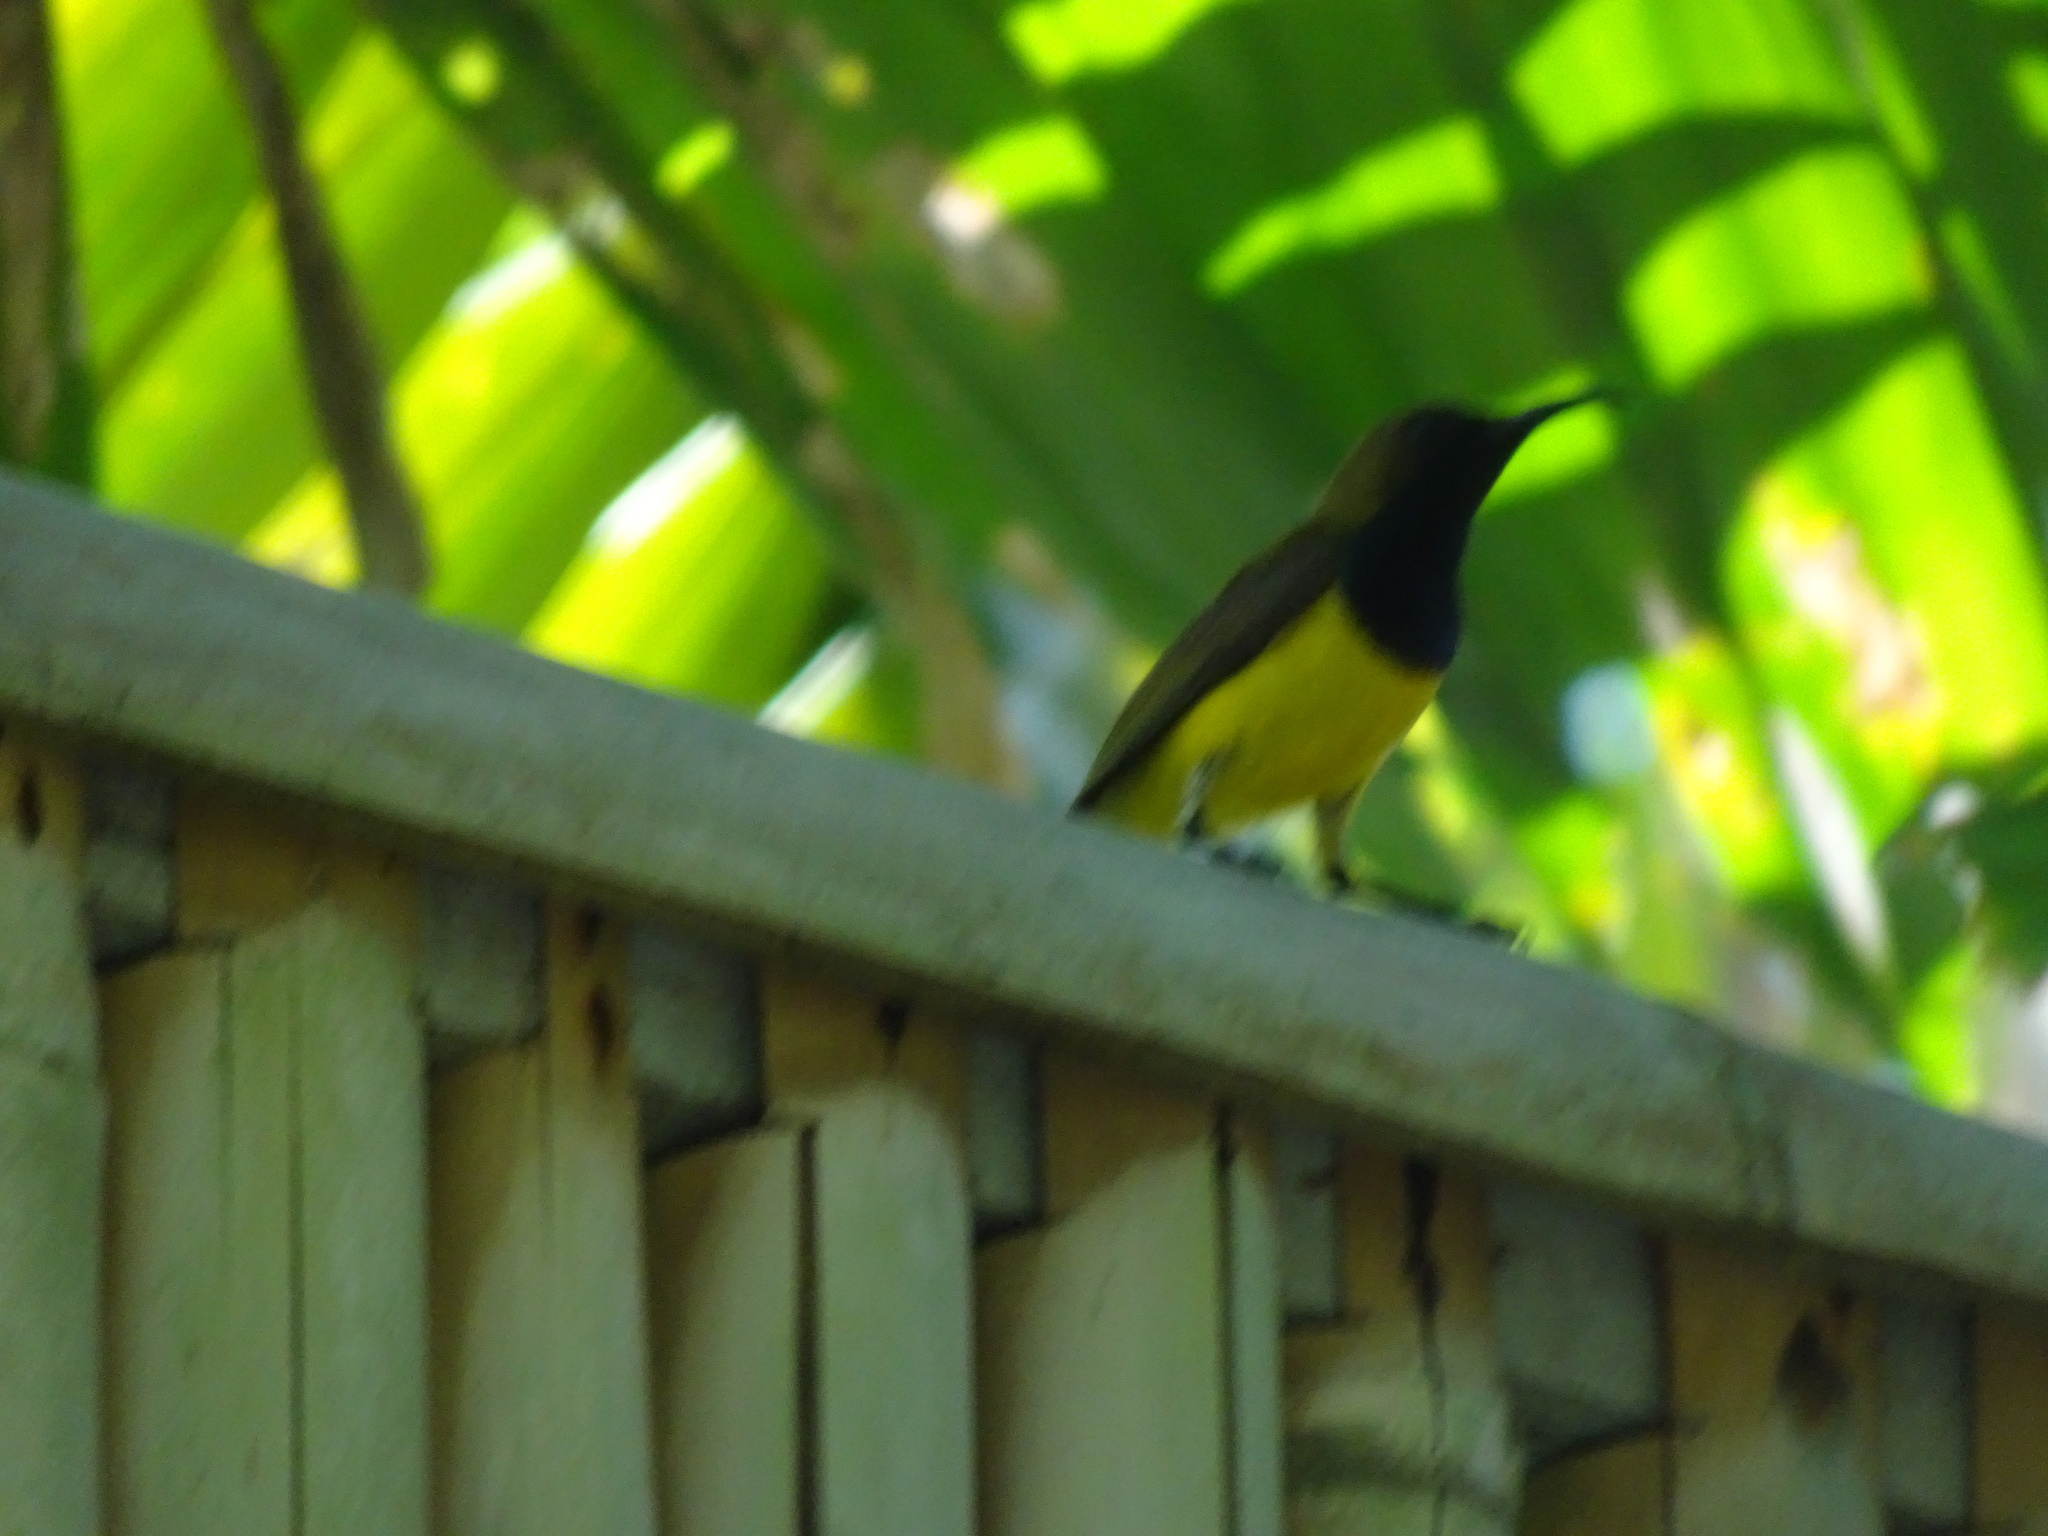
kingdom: Animalia
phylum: Chordata
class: Aves
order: Passeriformes
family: Nectariniidae
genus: Cinnyris
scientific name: Cinnyris
